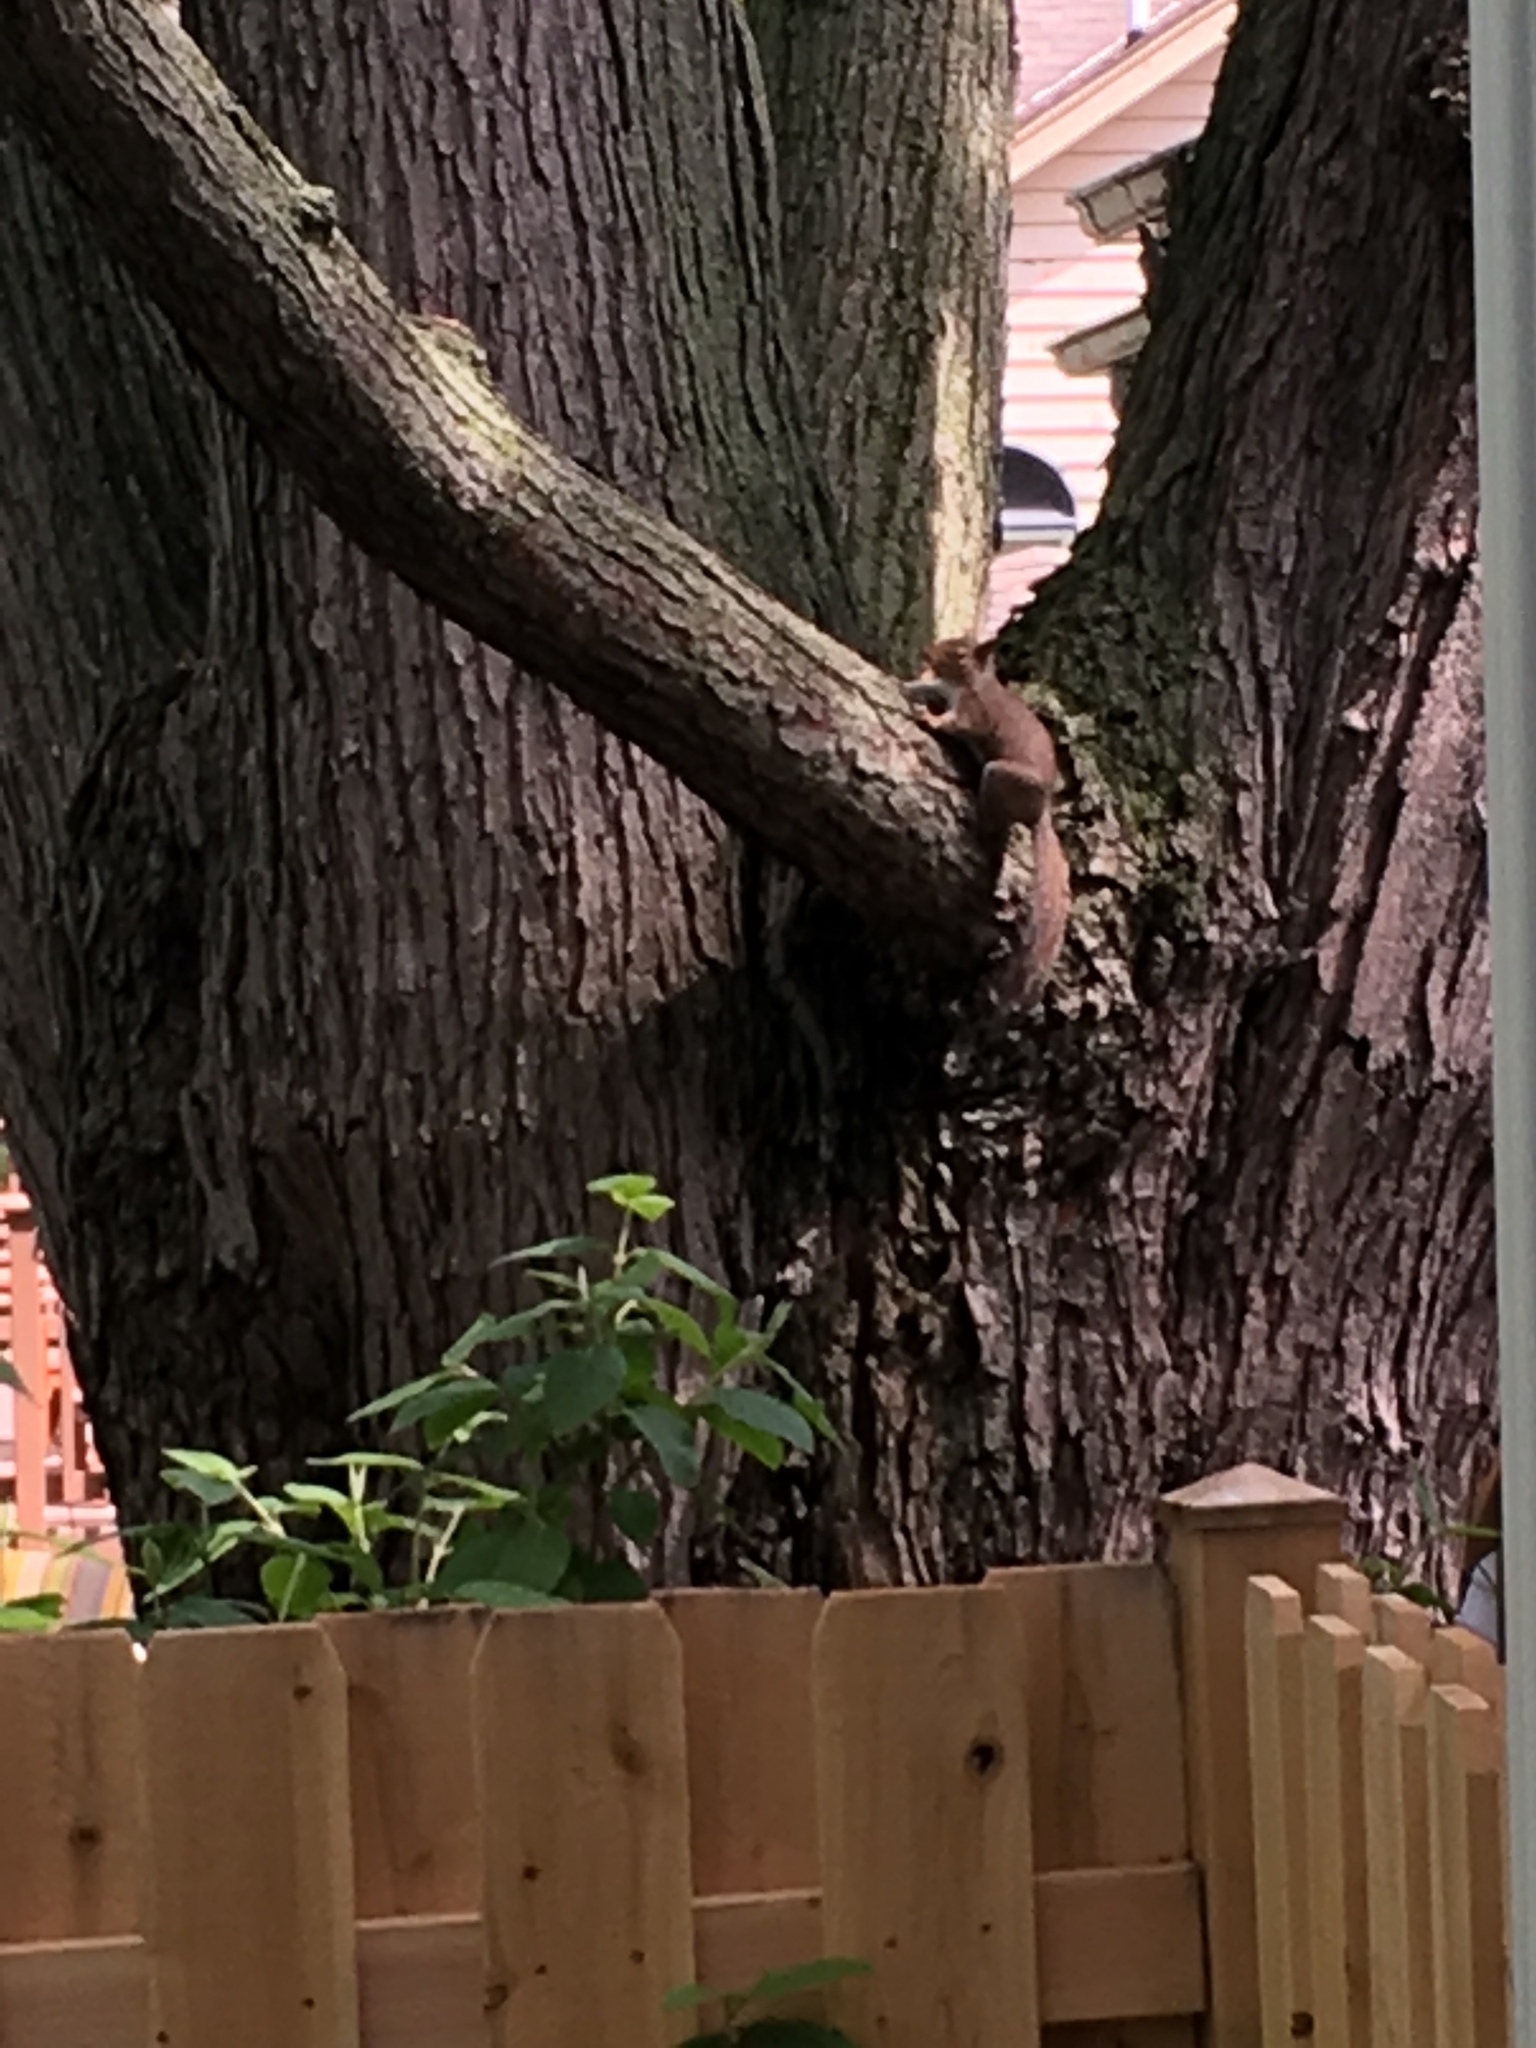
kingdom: Animalia
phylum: Chordata
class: Mammalia
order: Rodentia
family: Sciuridae
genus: Sciurus
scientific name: Sciurus carolinensis
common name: Eastern gray squirrel
